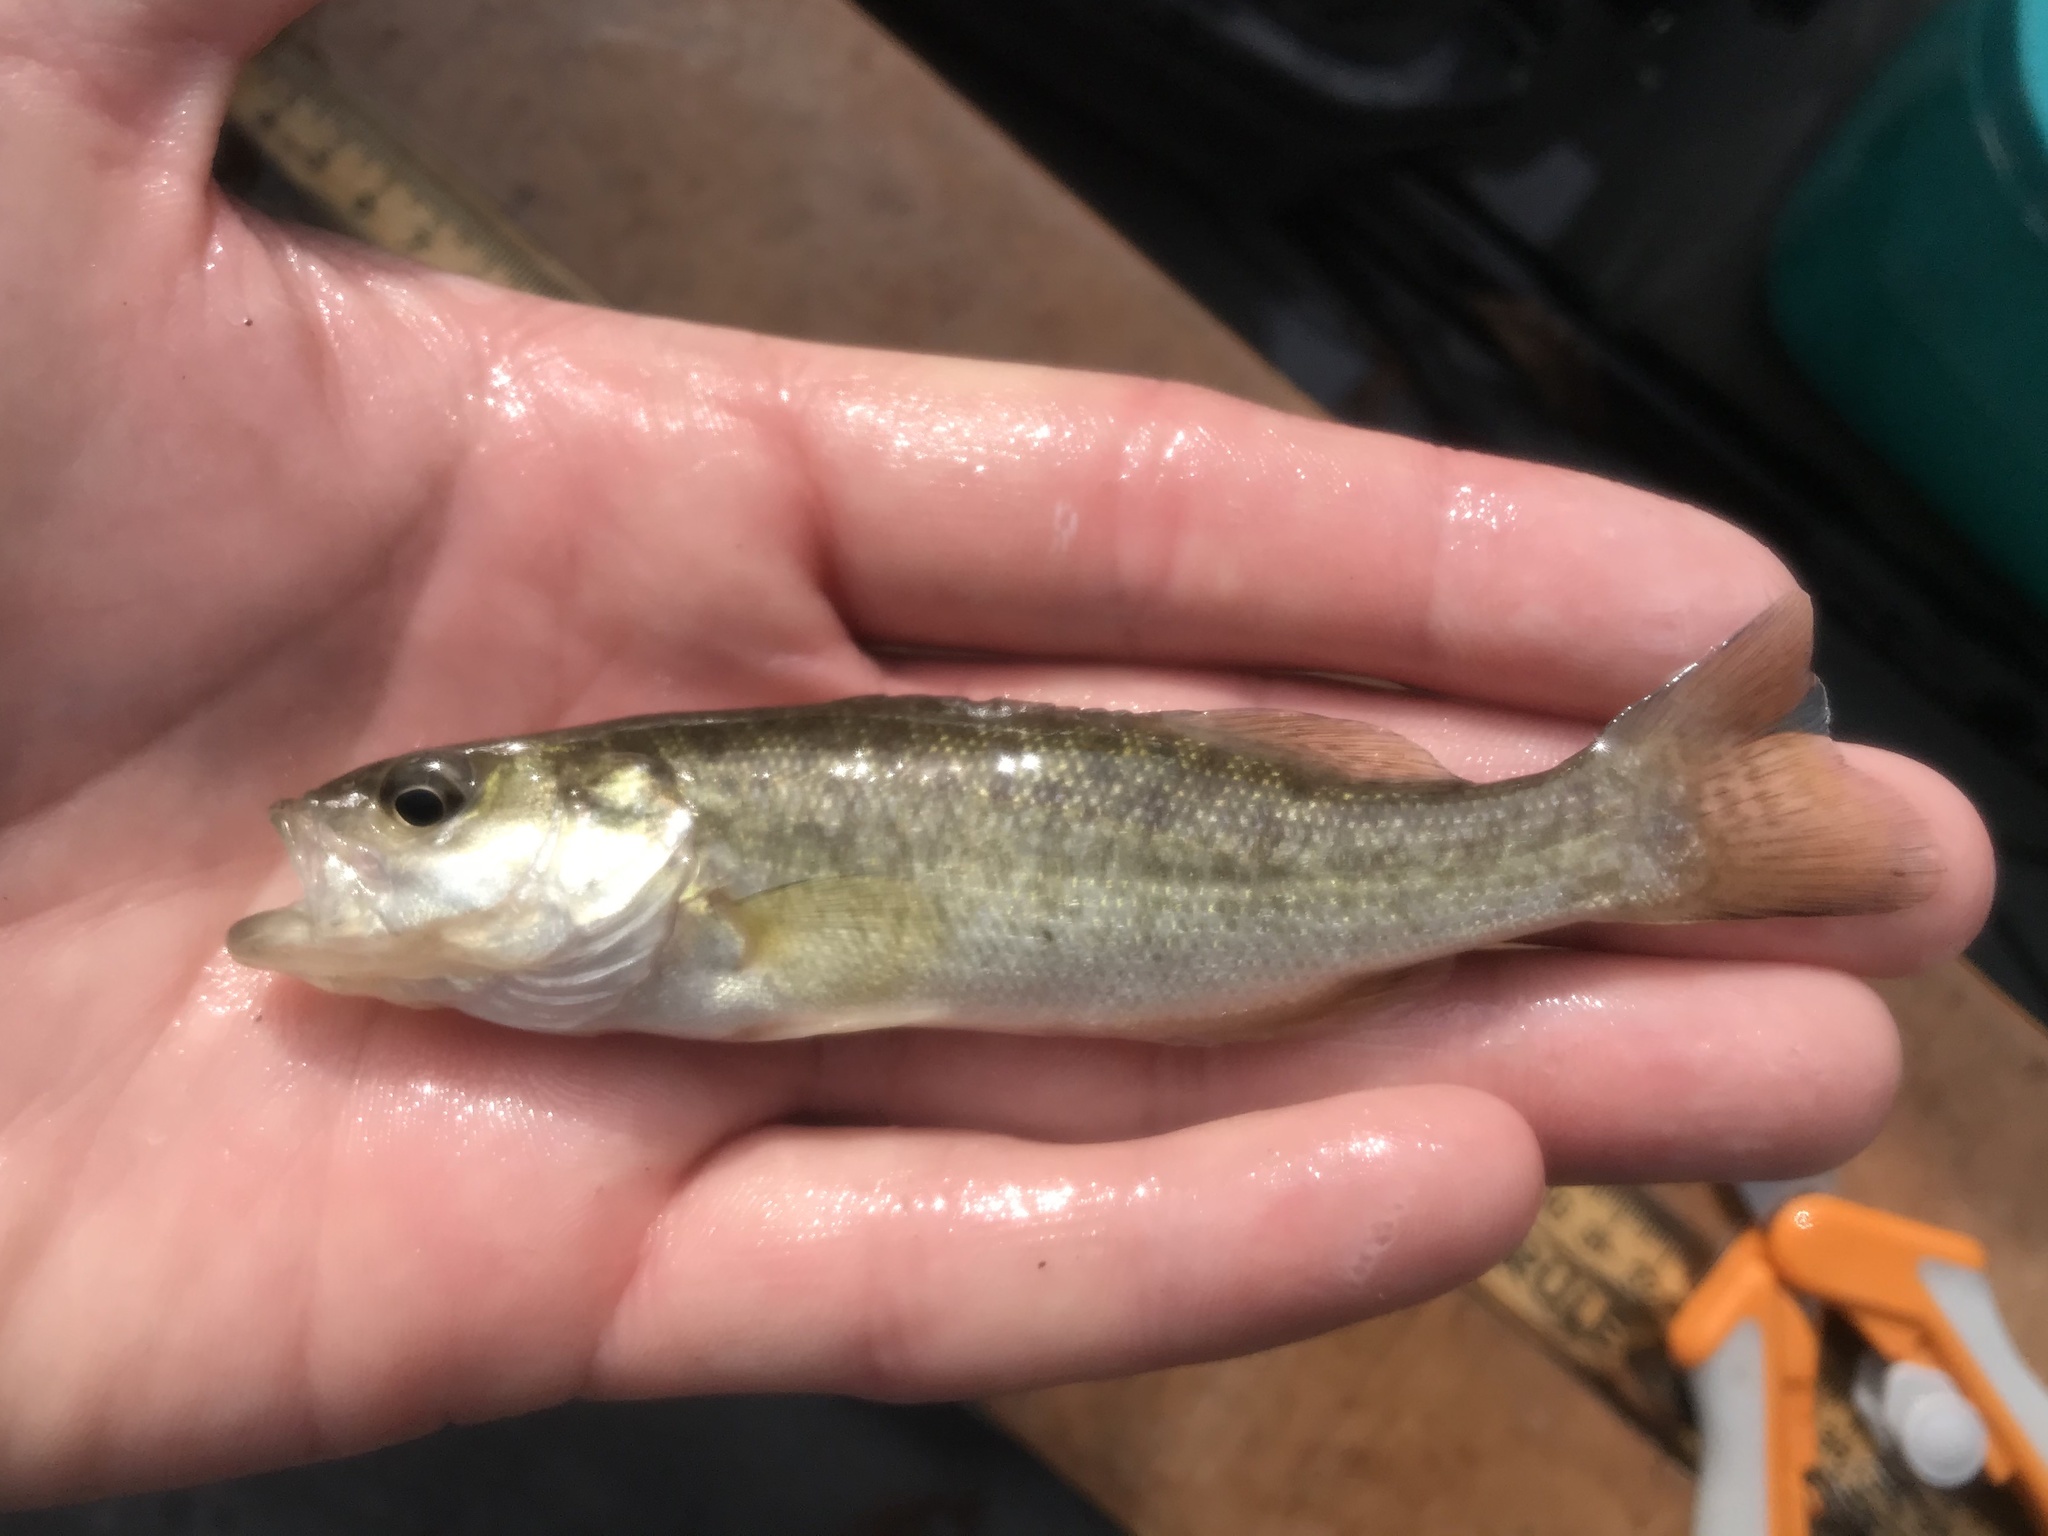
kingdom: Animalia
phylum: Chordata
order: Perciformes
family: Centrarchidae
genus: Micropterus
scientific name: Micropterus treculii
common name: Guadalupe bass
